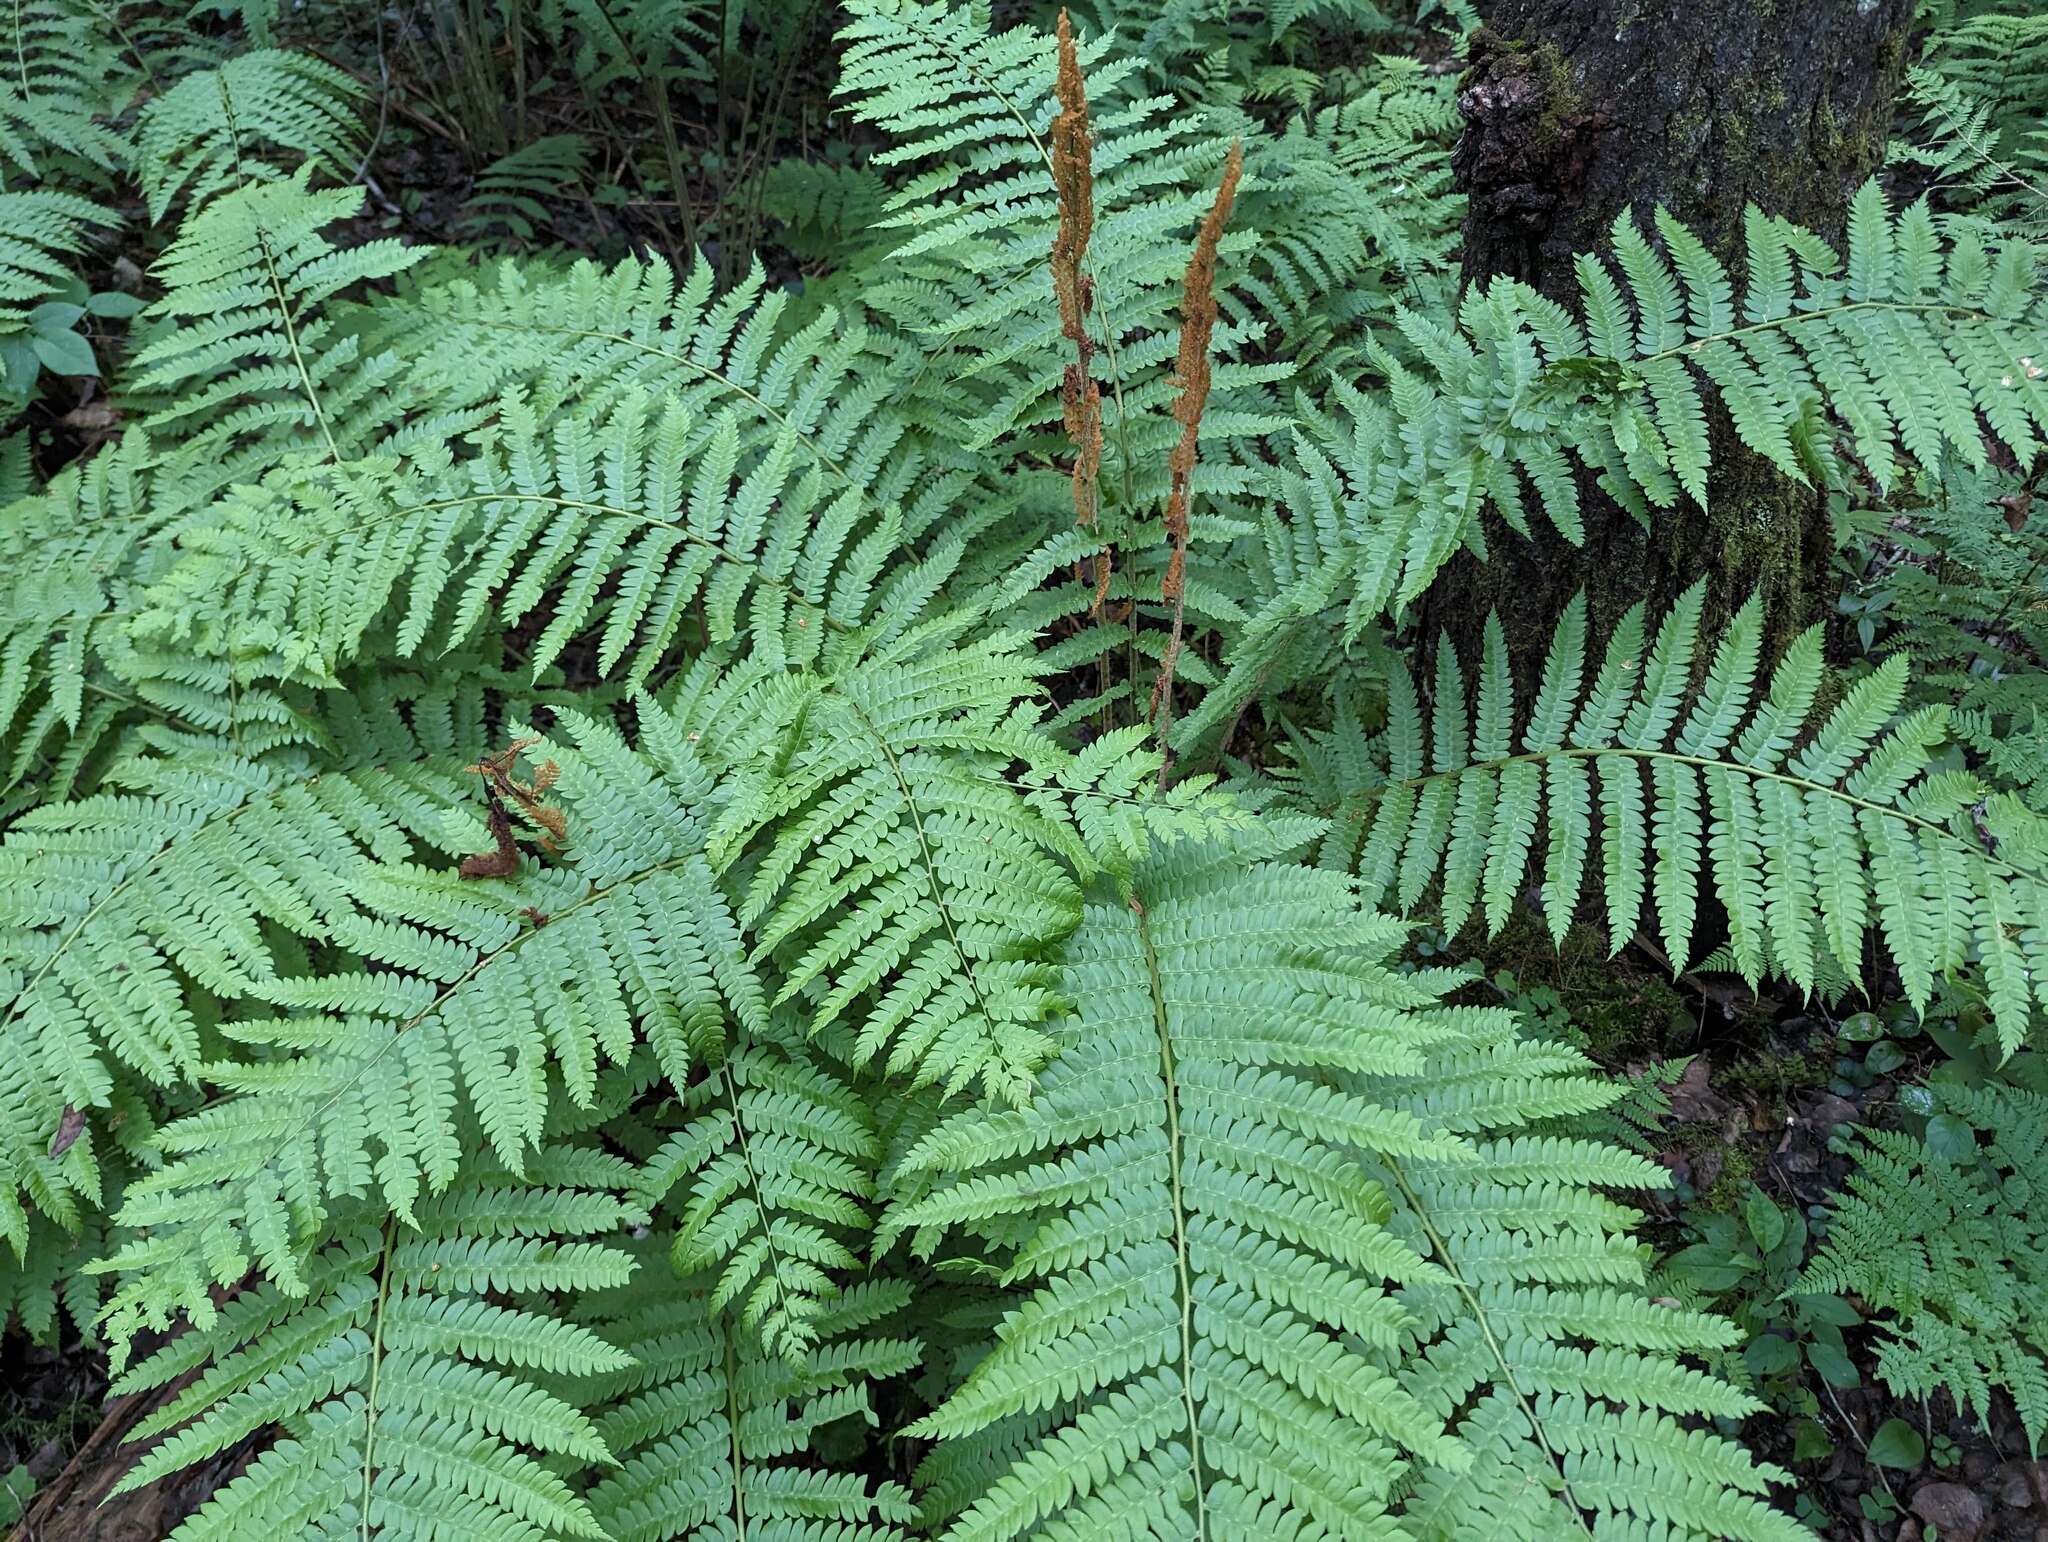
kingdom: Plantae
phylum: Tracheophyta
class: Polypodiopsida
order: Osmundales
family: Osmundaceae
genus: Osmundastrum
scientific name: Osmundastrum cinnamomeum
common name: Cinnamon fern
